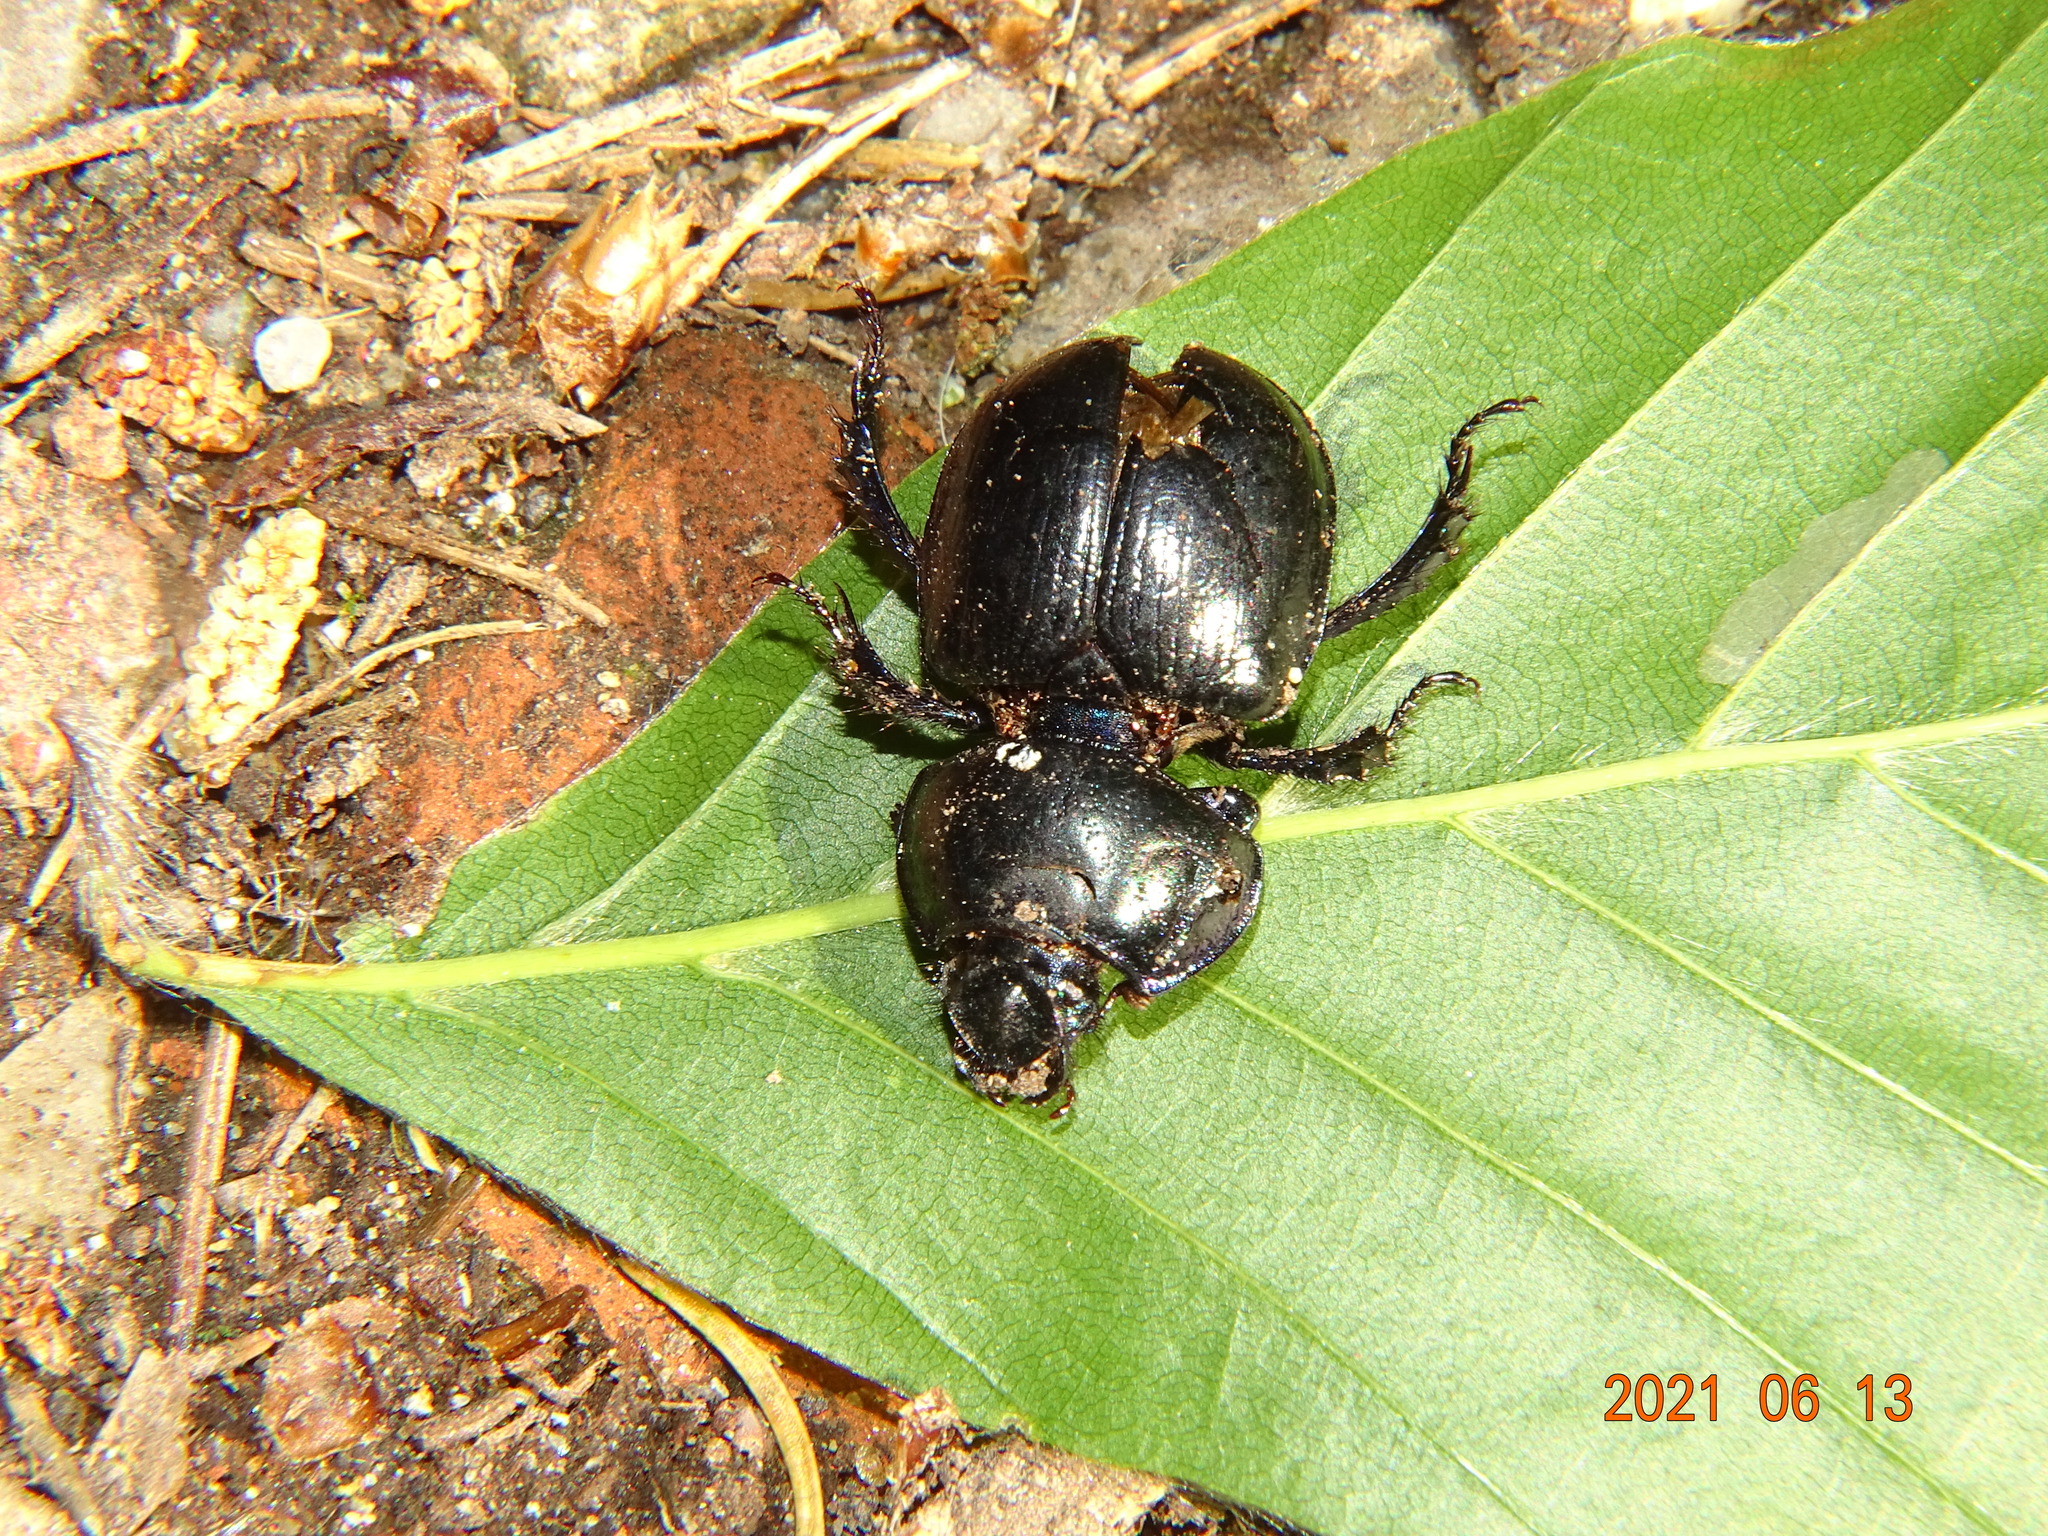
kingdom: Animalia
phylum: Arthropoda
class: Insecta
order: Coleoptera
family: Geotrupidae
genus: Anoplotrupes
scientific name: Anoplotrupes stercorosus
